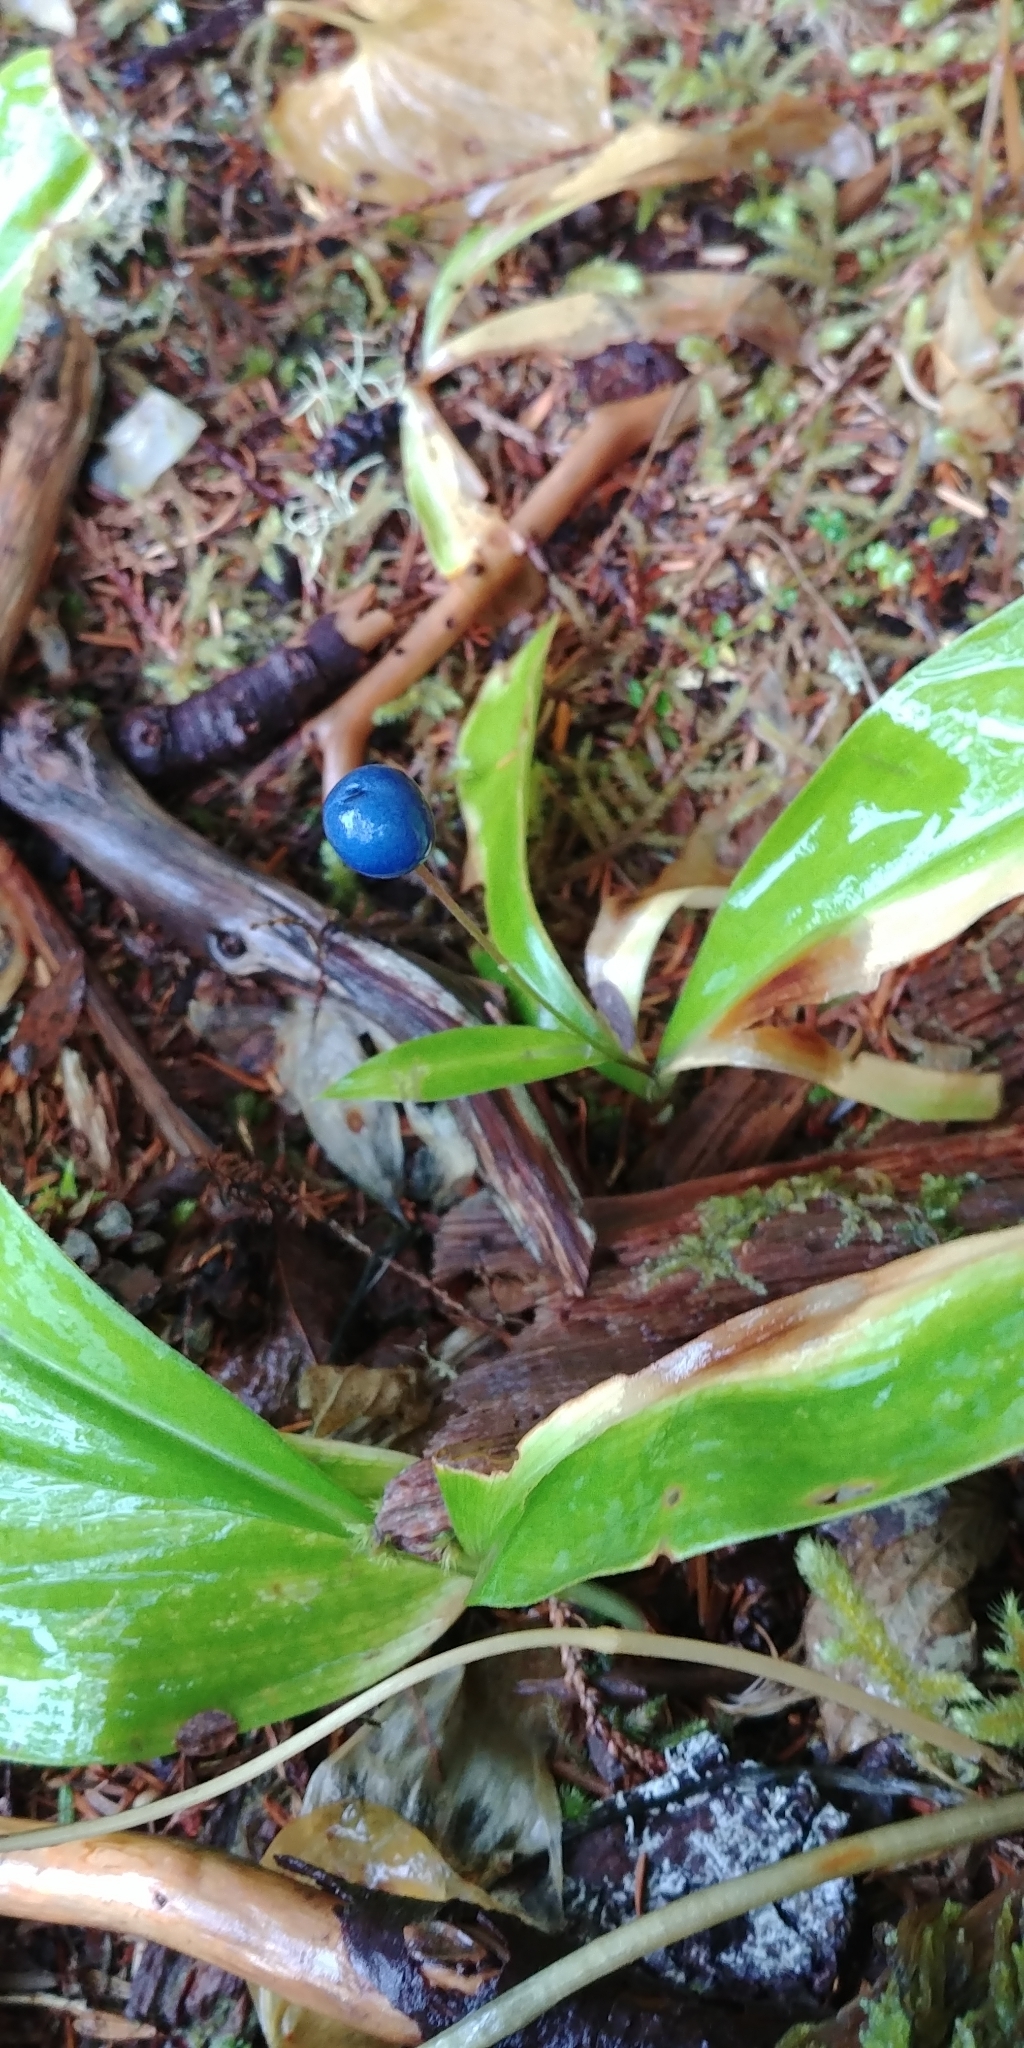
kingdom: Plantae
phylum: Tracheophyta
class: Liliopsida
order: Liliales
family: Liliaceae
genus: Clintonia
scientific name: Clintonia uniflora
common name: Queen's cup
